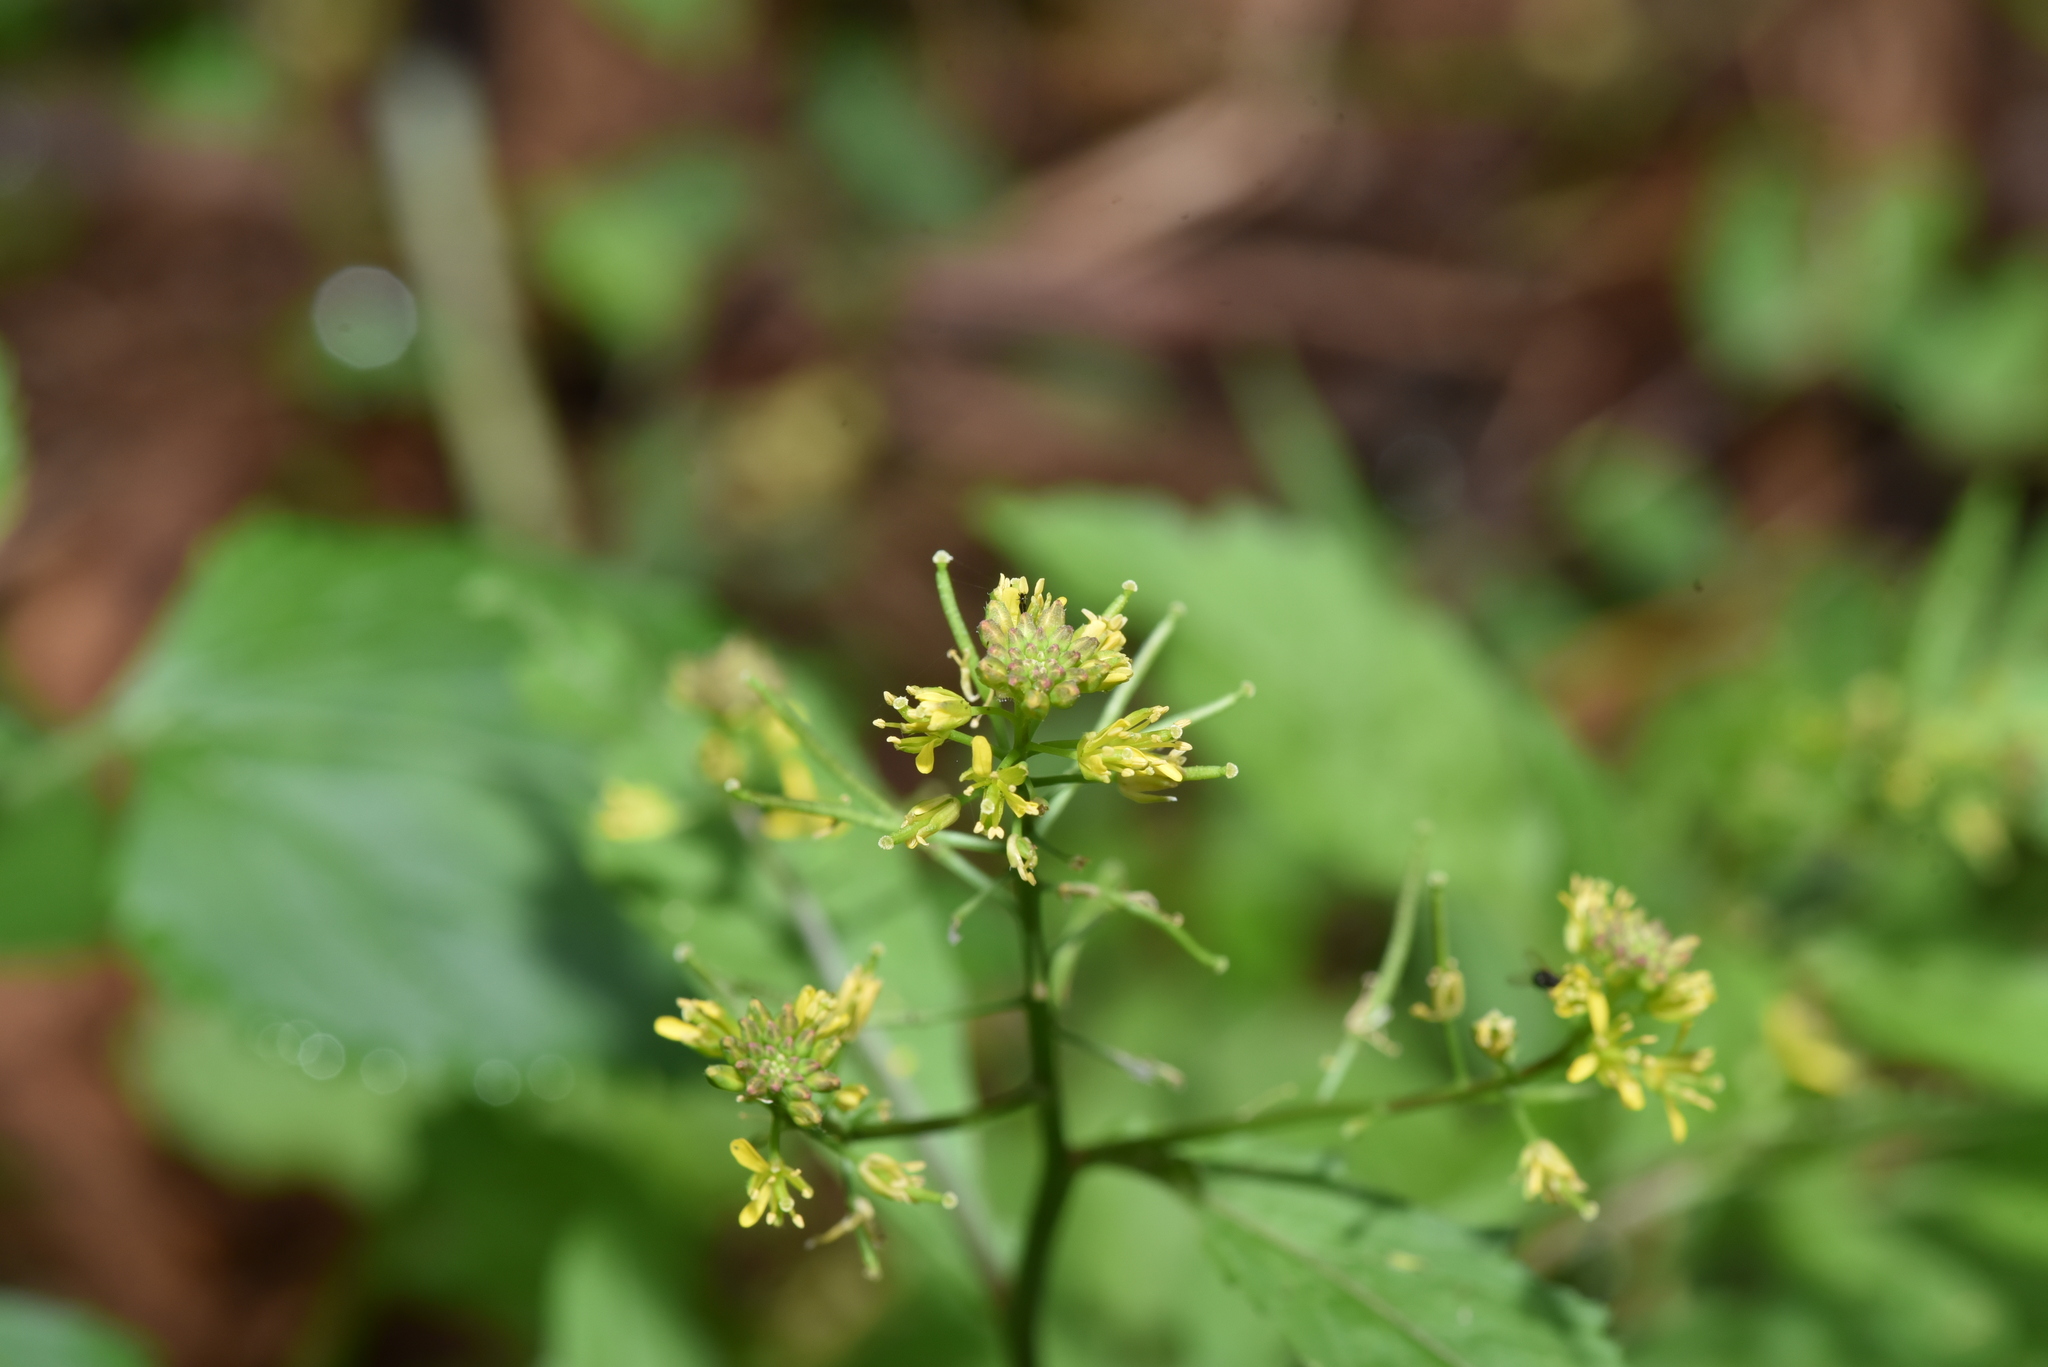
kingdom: Plantae
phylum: Tracheophyta
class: Magnoliopsida
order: Brassicales
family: Brassicaceae
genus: Rorippa
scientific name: Rorippa indica
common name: Variableleaf yellowcress
